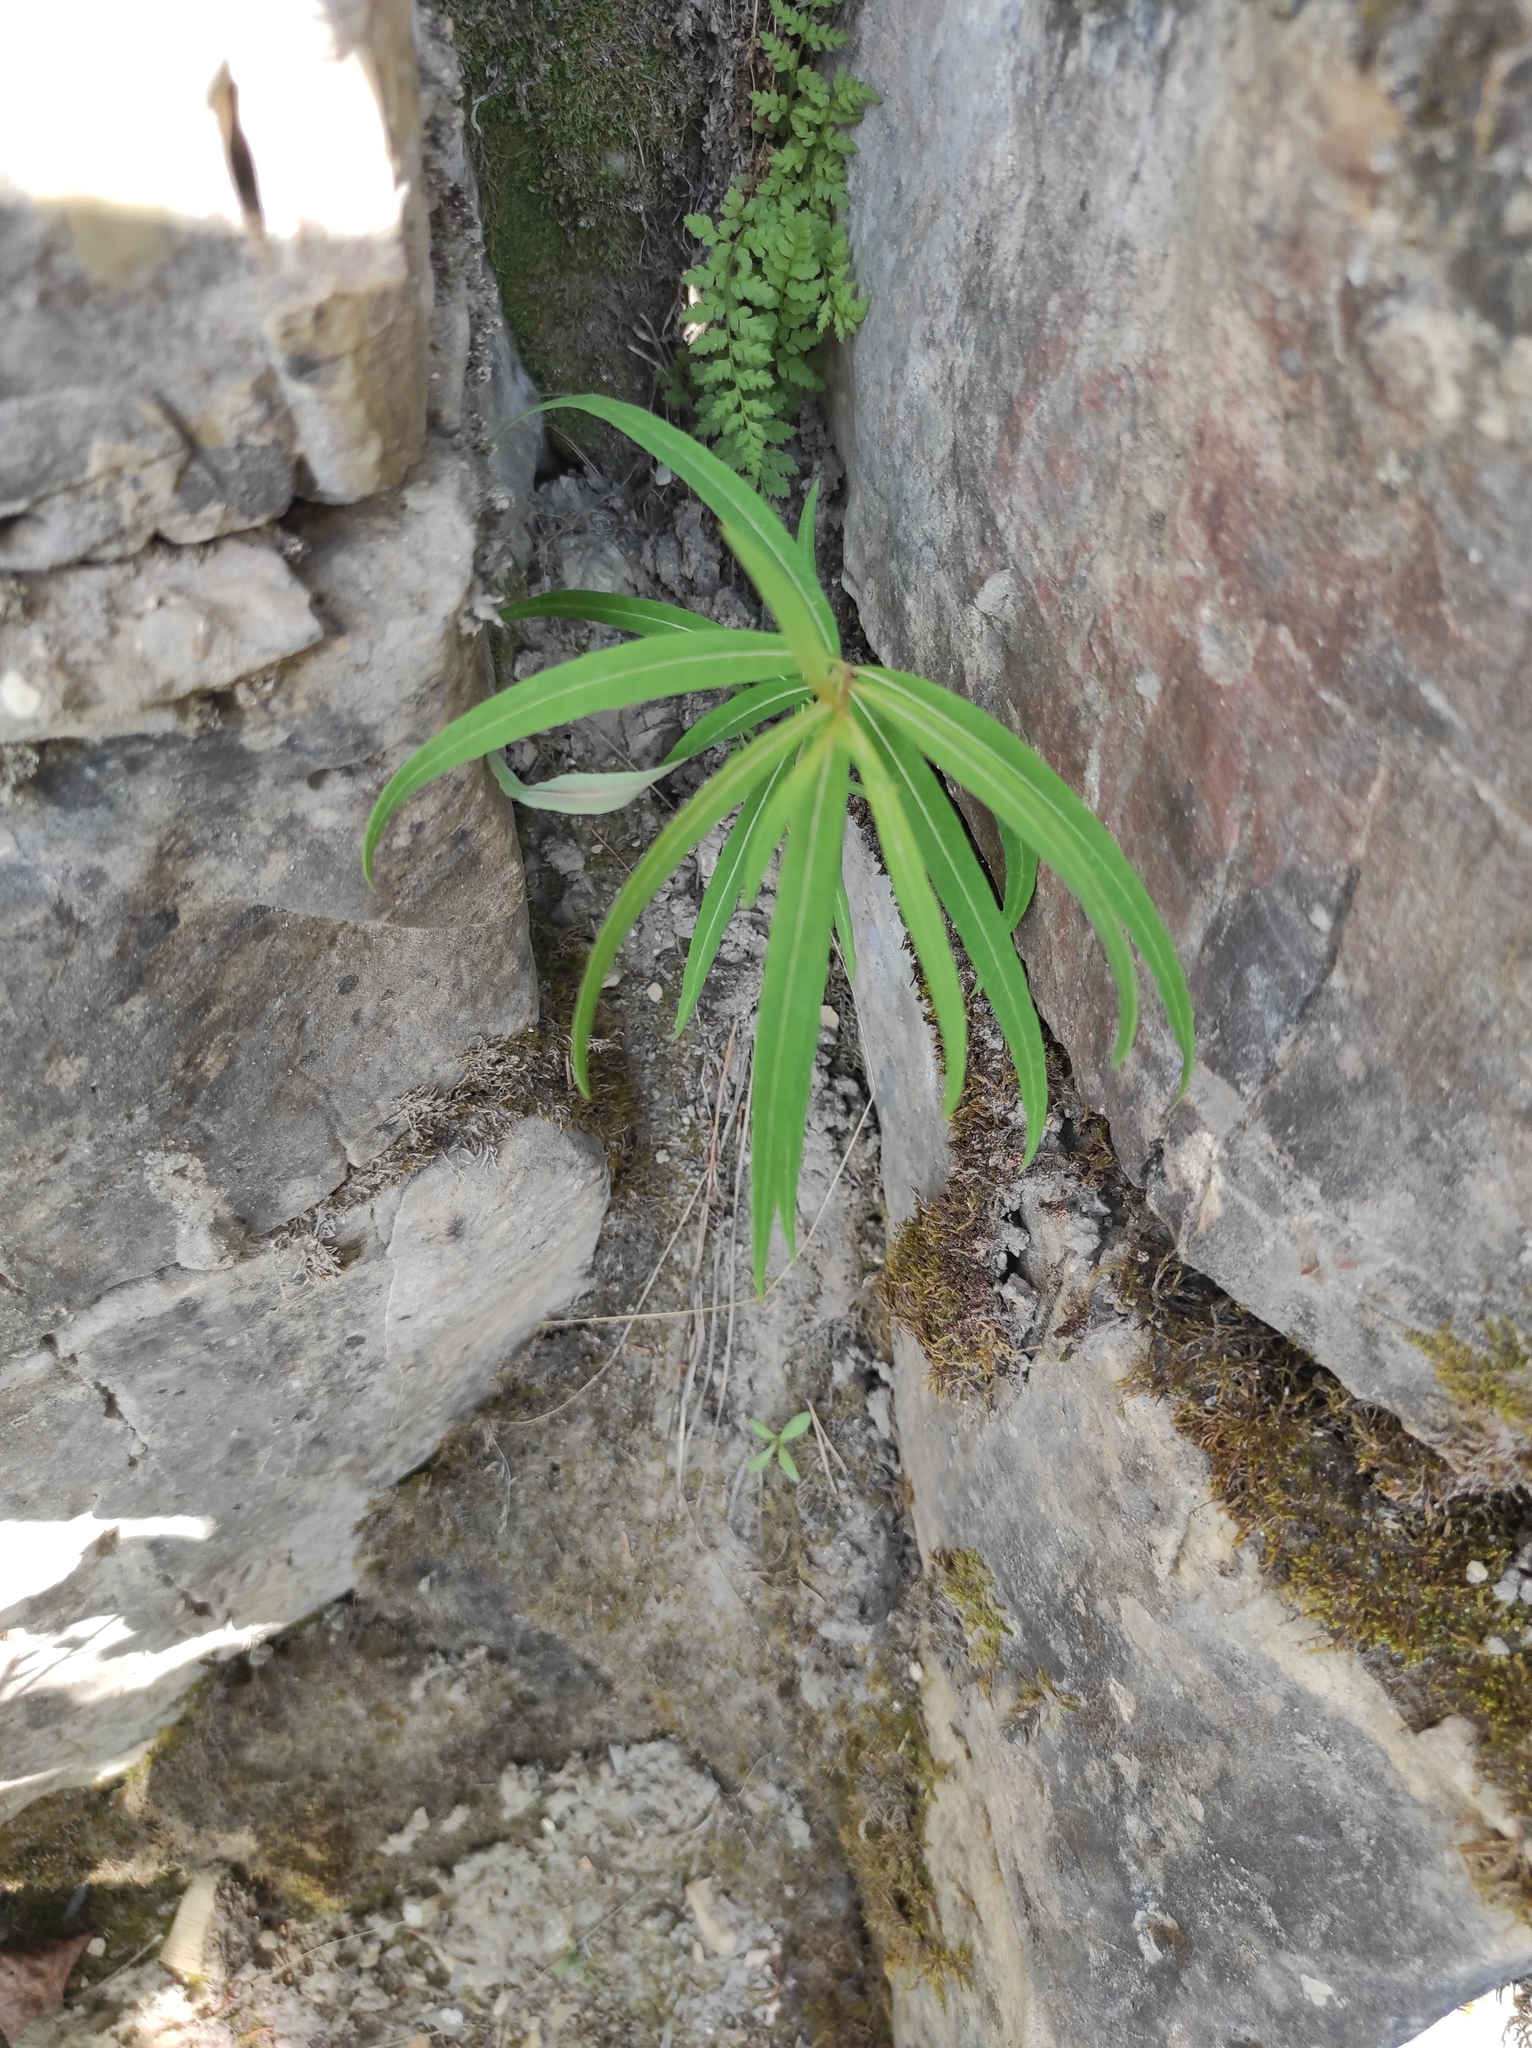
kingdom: Plantae
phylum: Tracheophyta
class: Polypodiopsida
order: Polypodiales
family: Cystopteridaceae
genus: Cystopteris
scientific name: Cystopteris fragilis
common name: Brittle bladder fern
